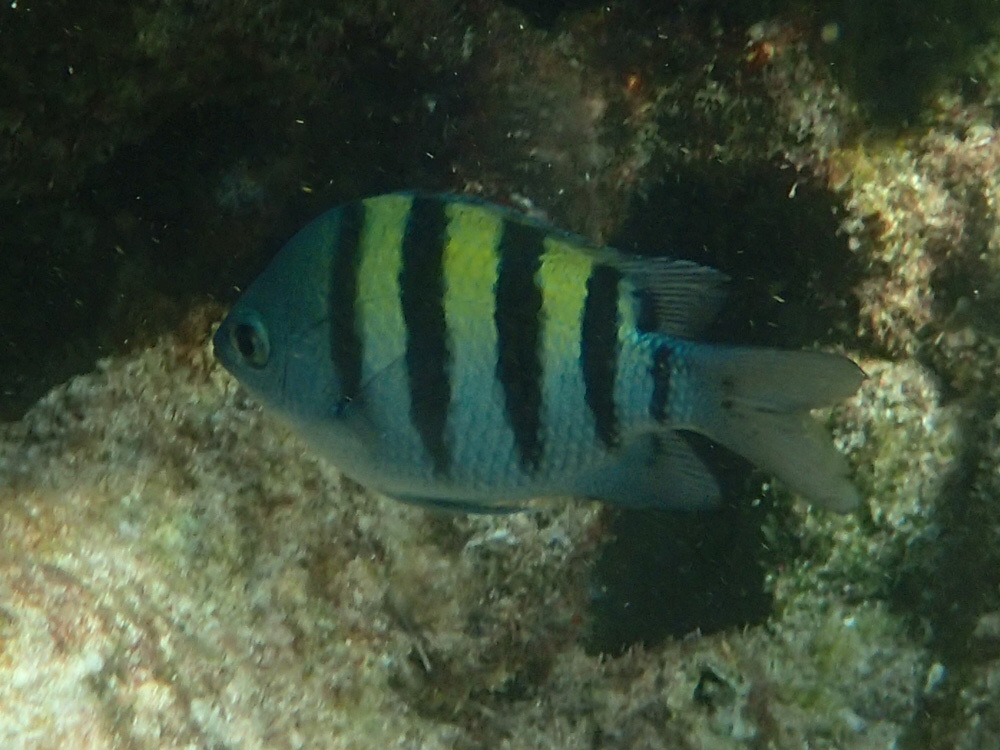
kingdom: Animalia
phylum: Chordata
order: Perciformes
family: Pomacentridae
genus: Abudefduf
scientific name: Abudefduf saxatilis
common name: Sergeant major
